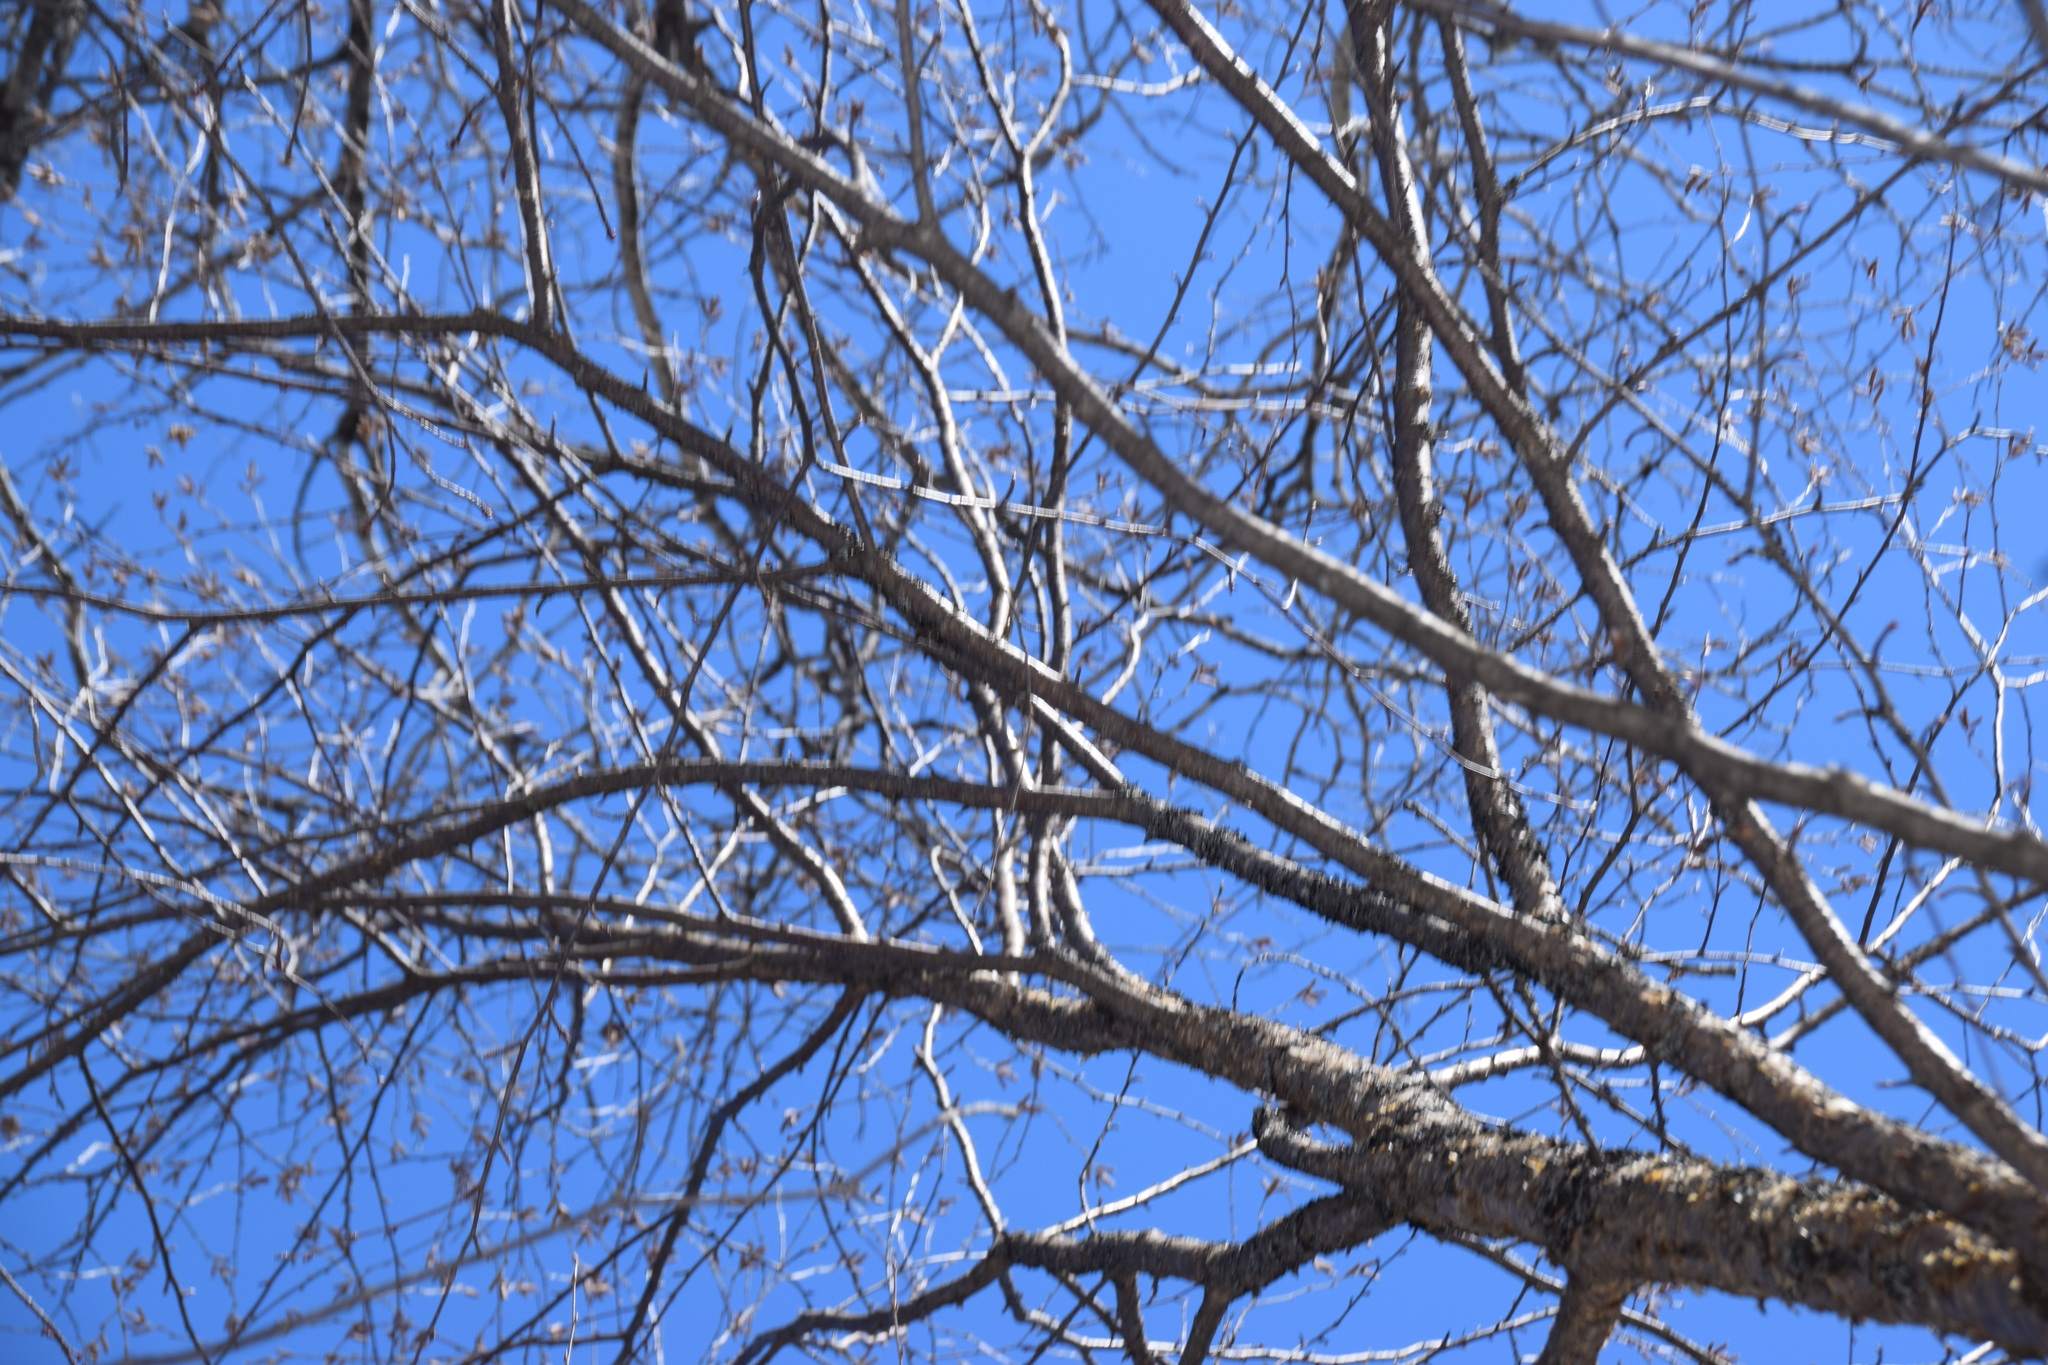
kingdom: Plantae
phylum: Tracheophyta
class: Magnoliopsida
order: Fagales
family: Betulaceae
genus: Betula
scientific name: Betula alleghaniensis
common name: Yellow birch
